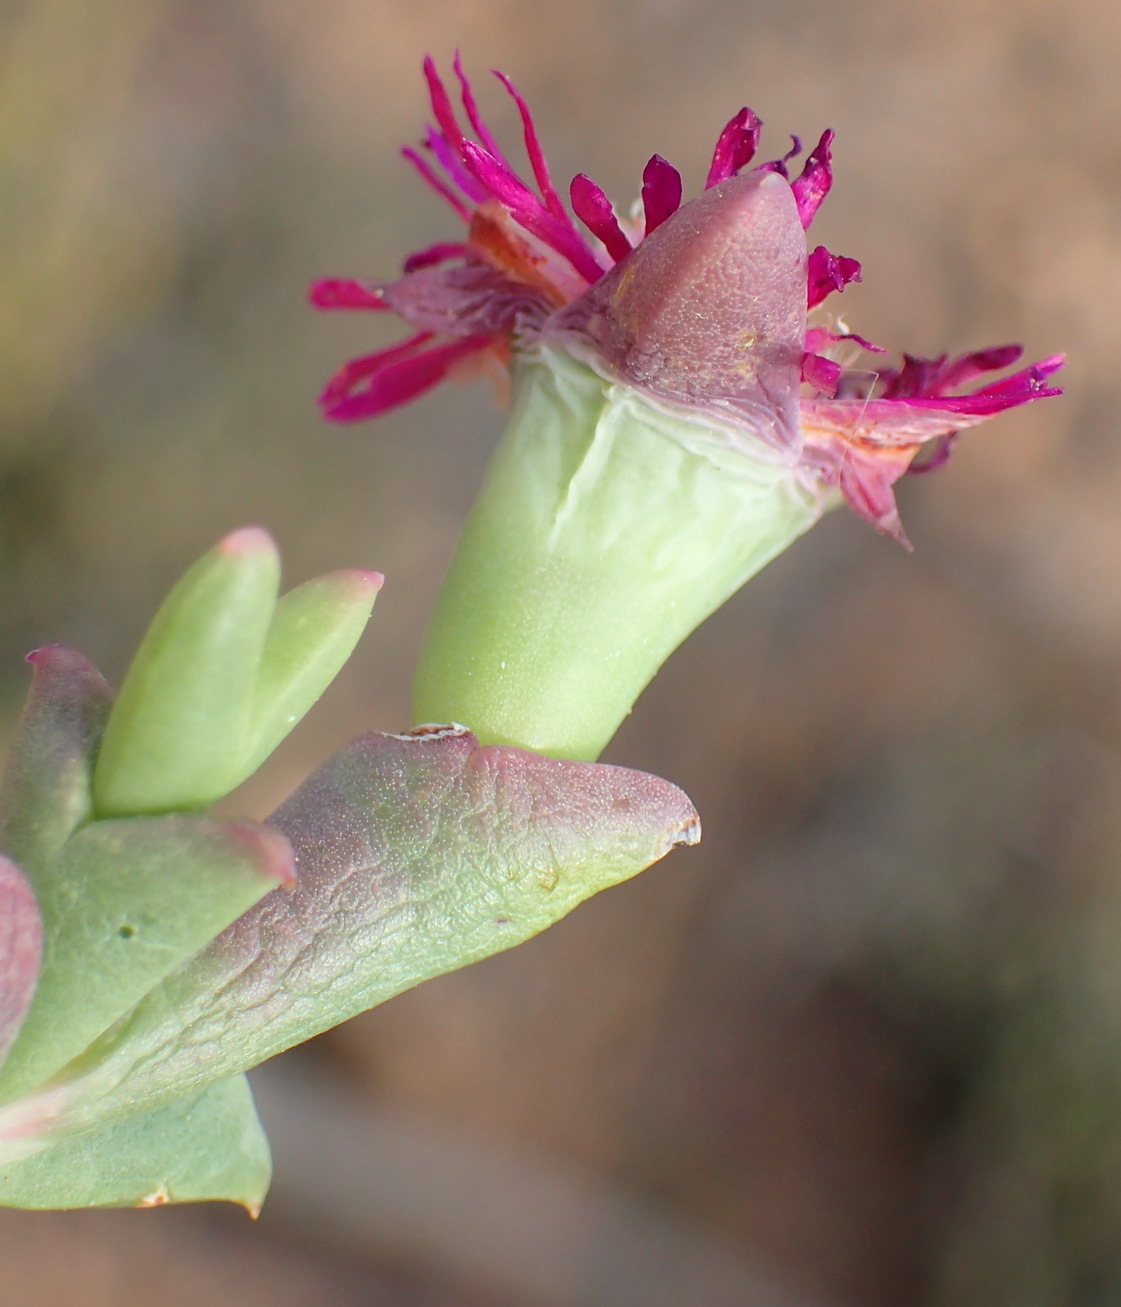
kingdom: Plantae
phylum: Tracheophyta
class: Magnoliopsida
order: Caryophyllales
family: Aizoaceae
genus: Smicrostigma
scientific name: Smicrostigma viride
